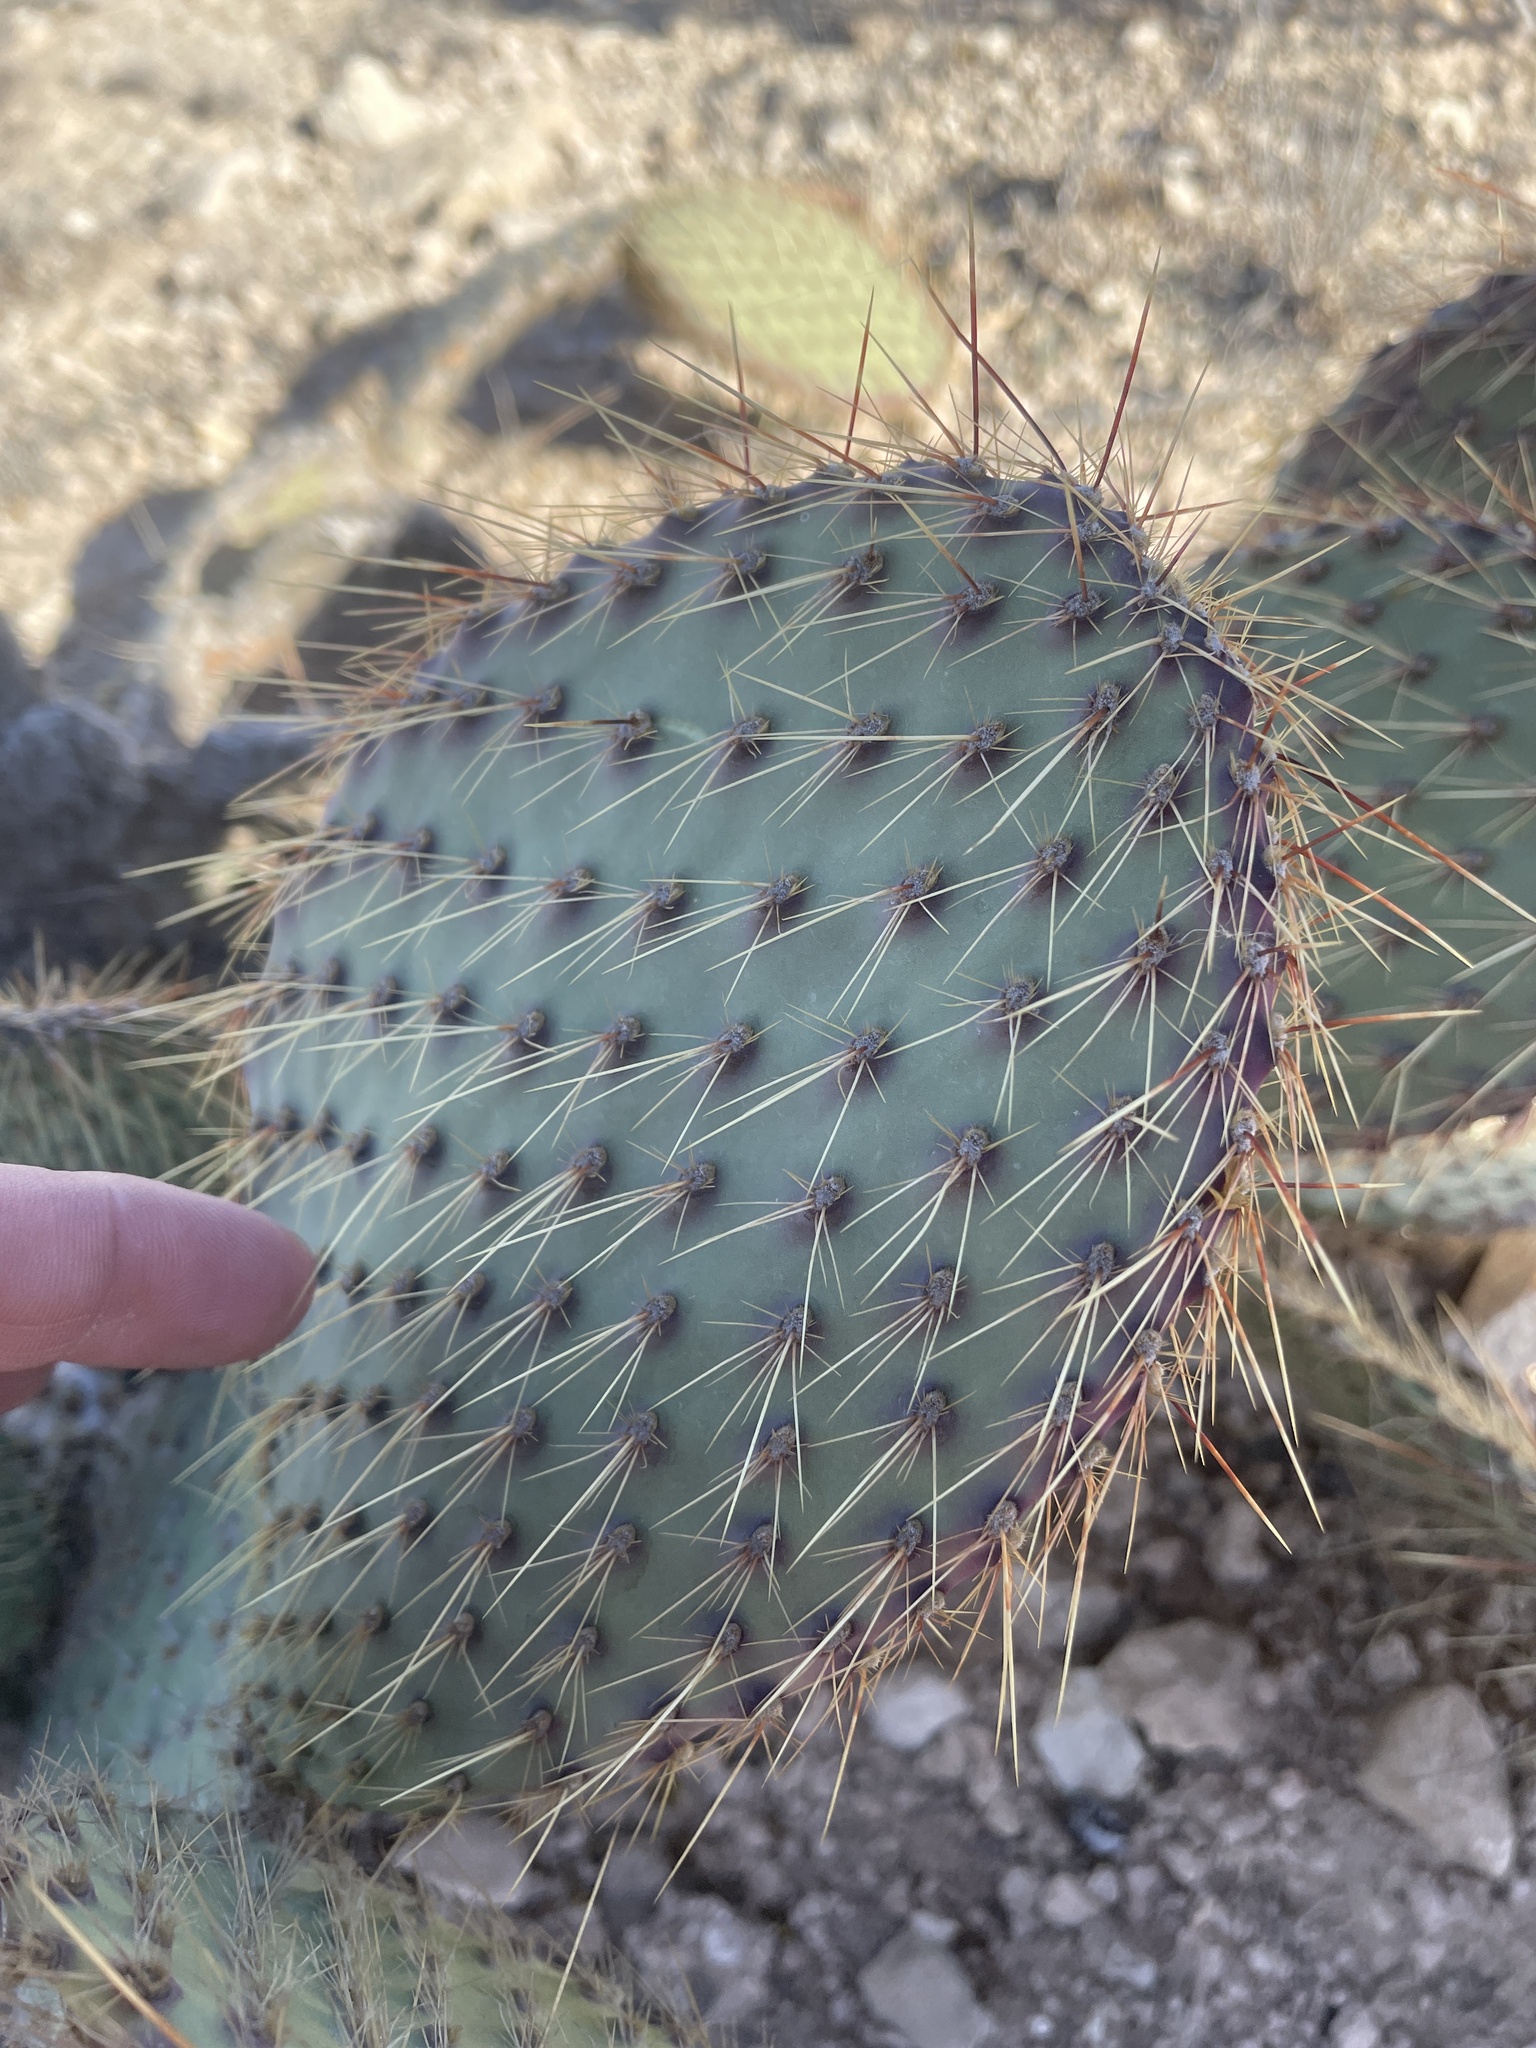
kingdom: Plantae
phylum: Tracheophyta
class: Magnoliopsida
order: Caryophyllales
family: Cactaceae
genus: Opuntia
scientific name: Opuntia strigil
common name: Marble-fruit prickly-pear
